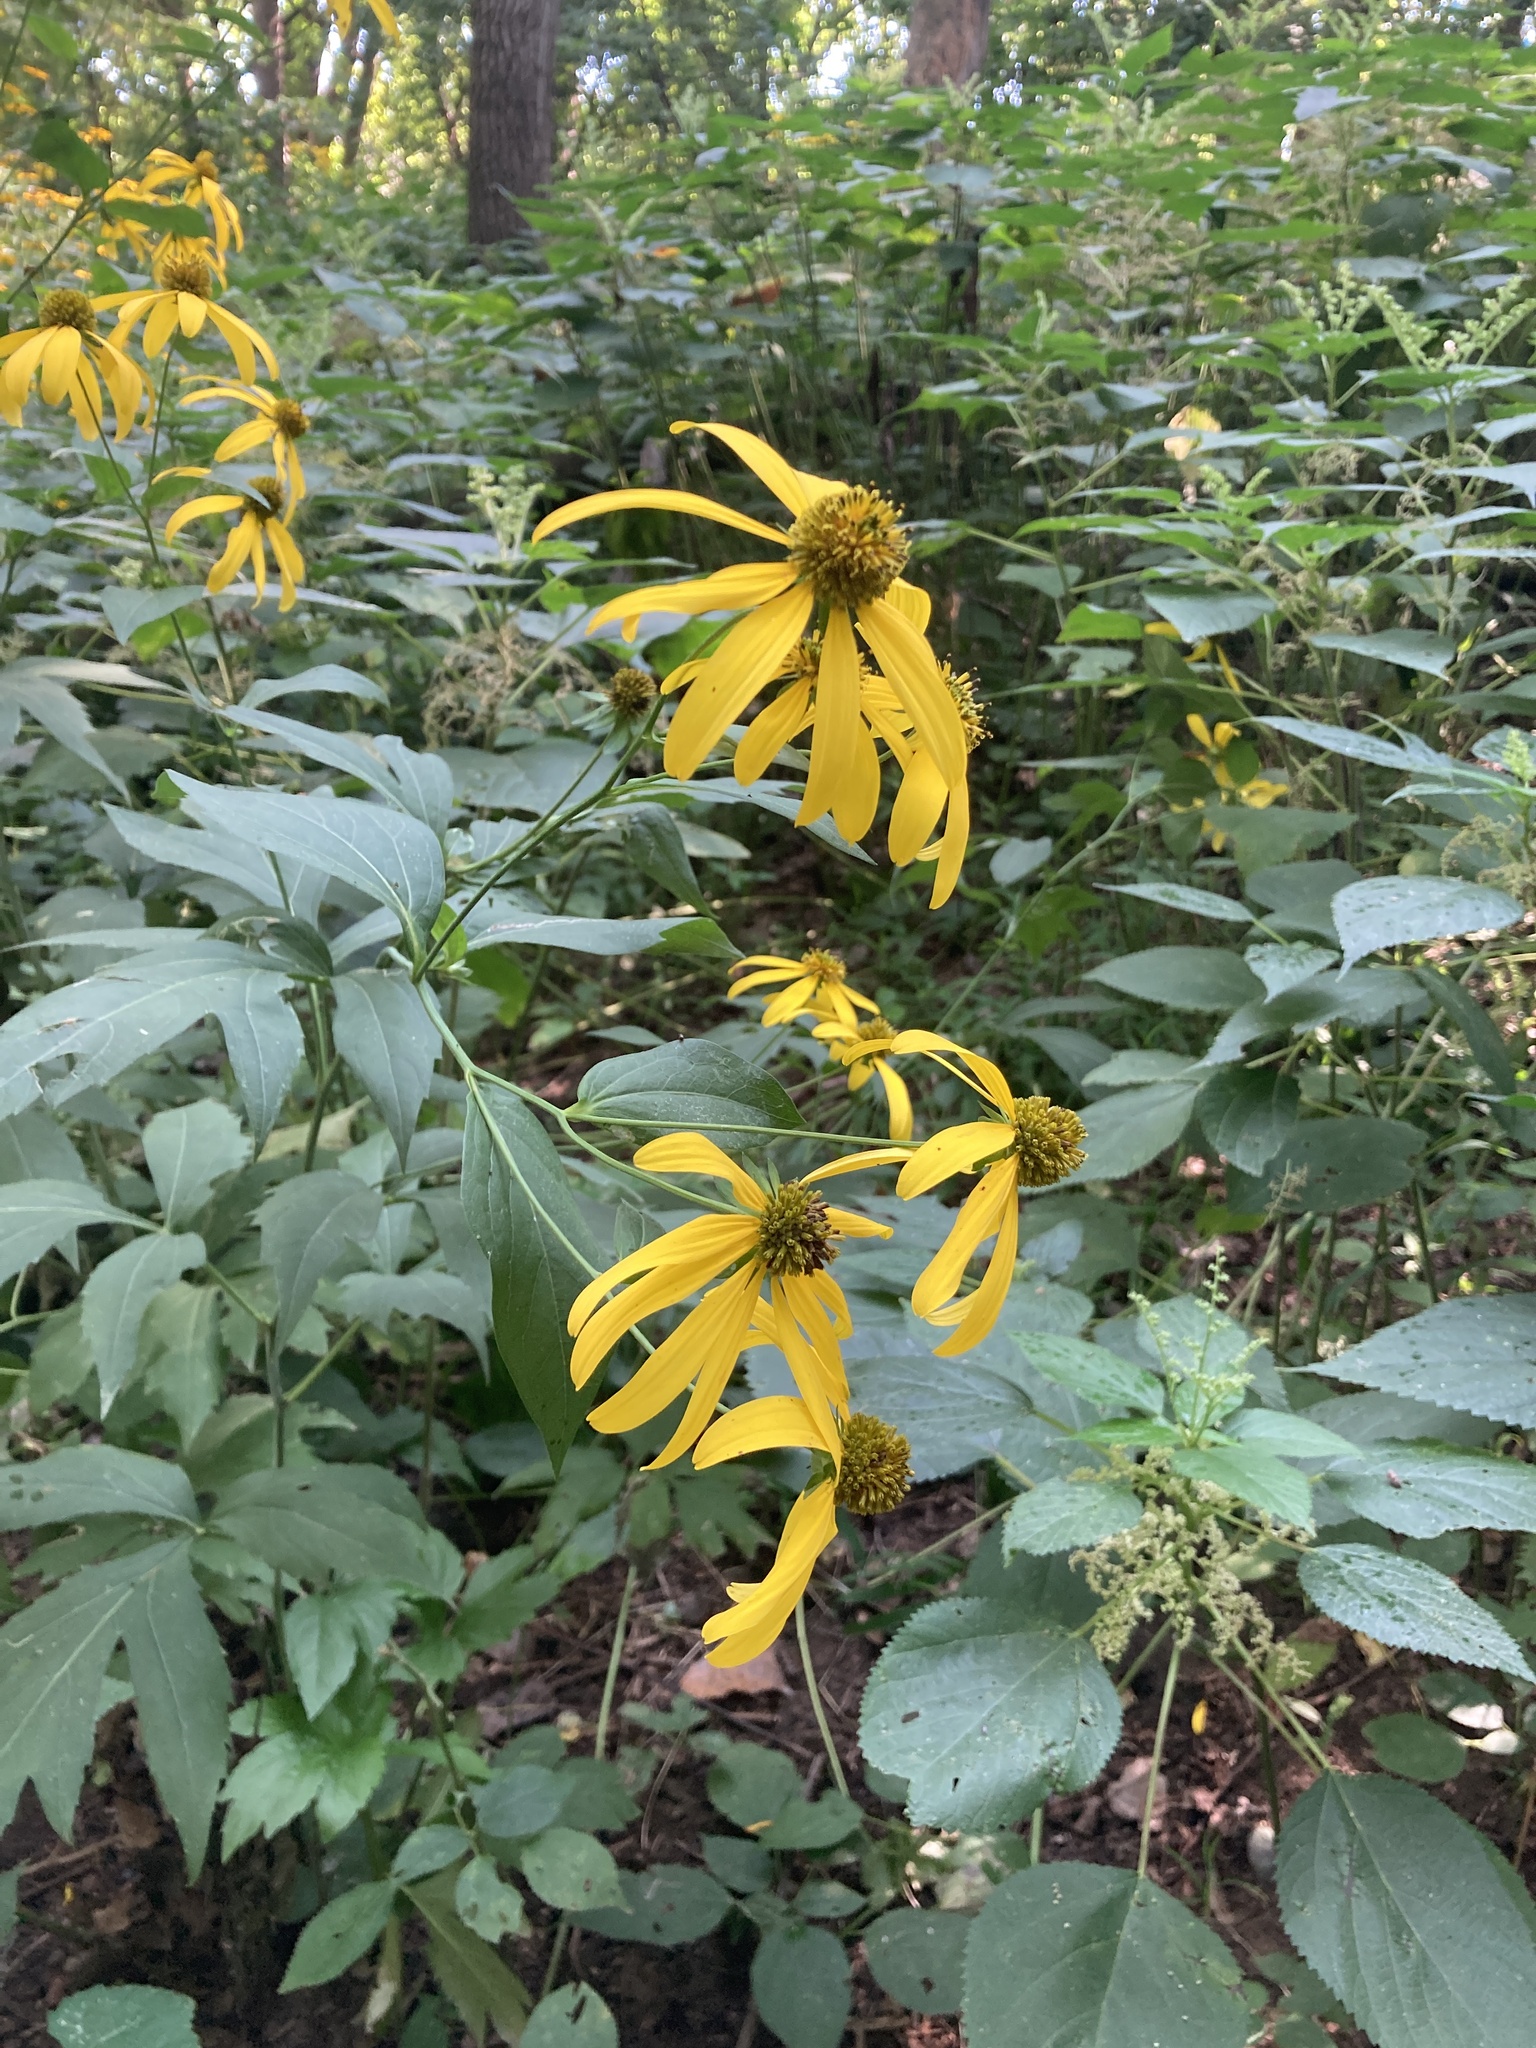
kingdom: Plantae
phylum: Tracheophyta
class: Magnoliopsida
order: Asterales
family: Asteraceae
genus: Rudbeckia
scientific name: Rudbeckia laciniata
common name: Coneflower
